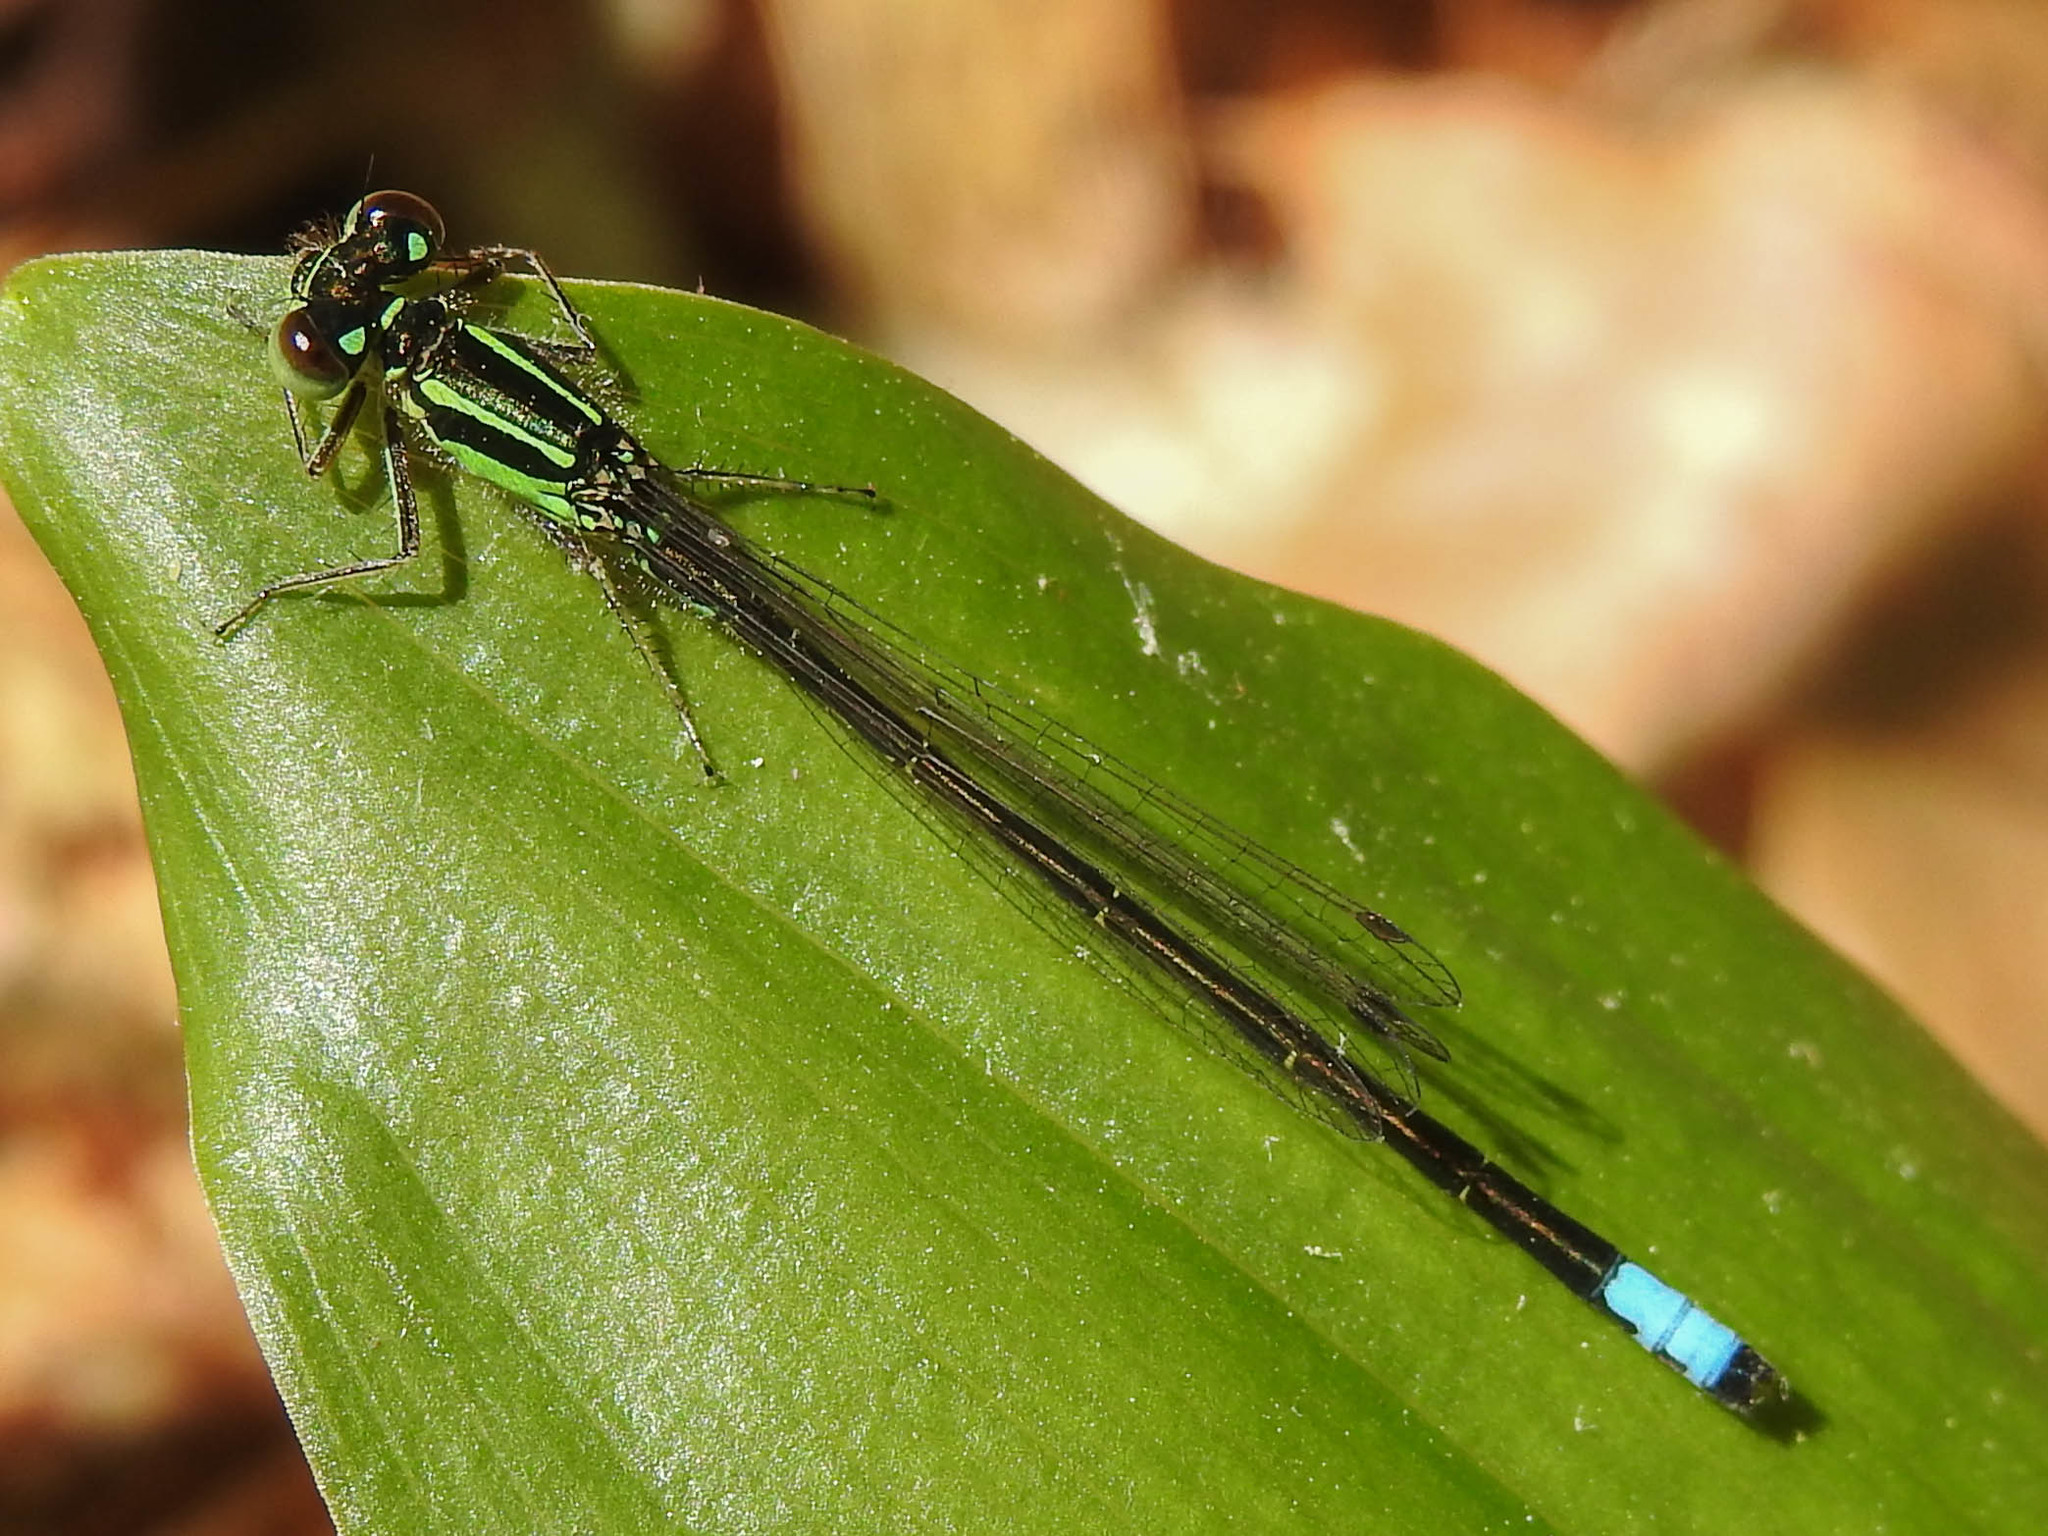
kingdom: Animalia
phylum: Arthropoda
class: Insecta
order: Odonata
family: Coenagrionidae
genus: Ischnura
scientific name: Ischnura verticalis
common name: Eastern forktail
